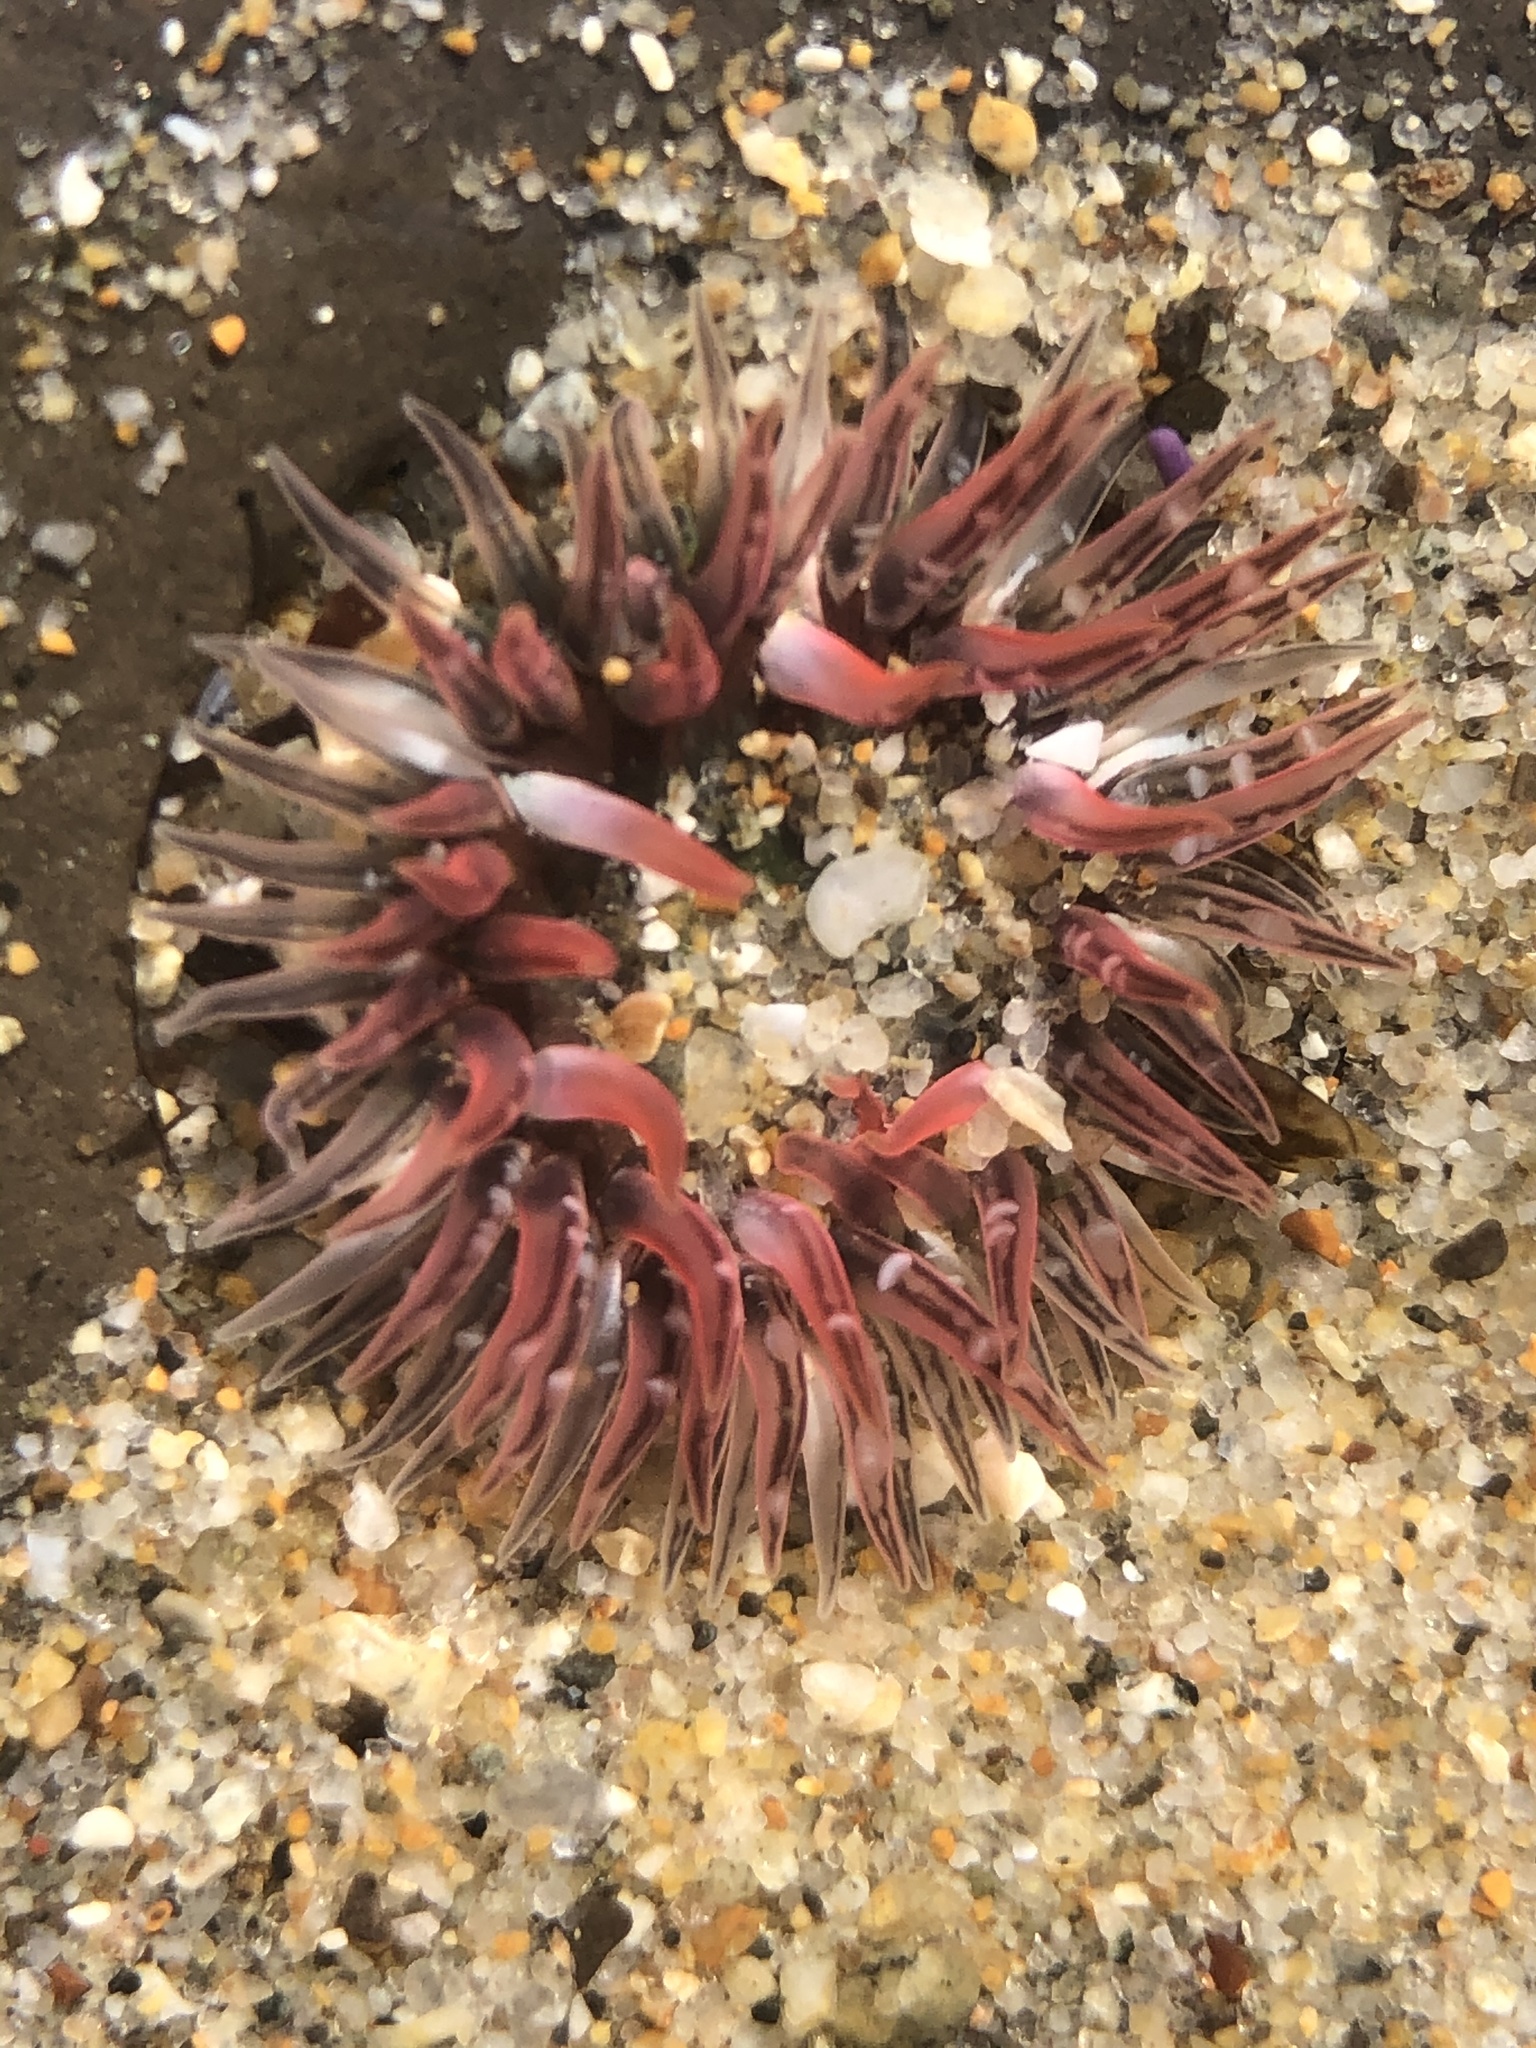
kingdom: Animalia
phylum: Cnidaria
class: Anthozoa
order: Actiniaria
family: Actiniidae
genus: Anthopleura
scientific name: Anthopleura artemisia
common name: Buried sea anemone
